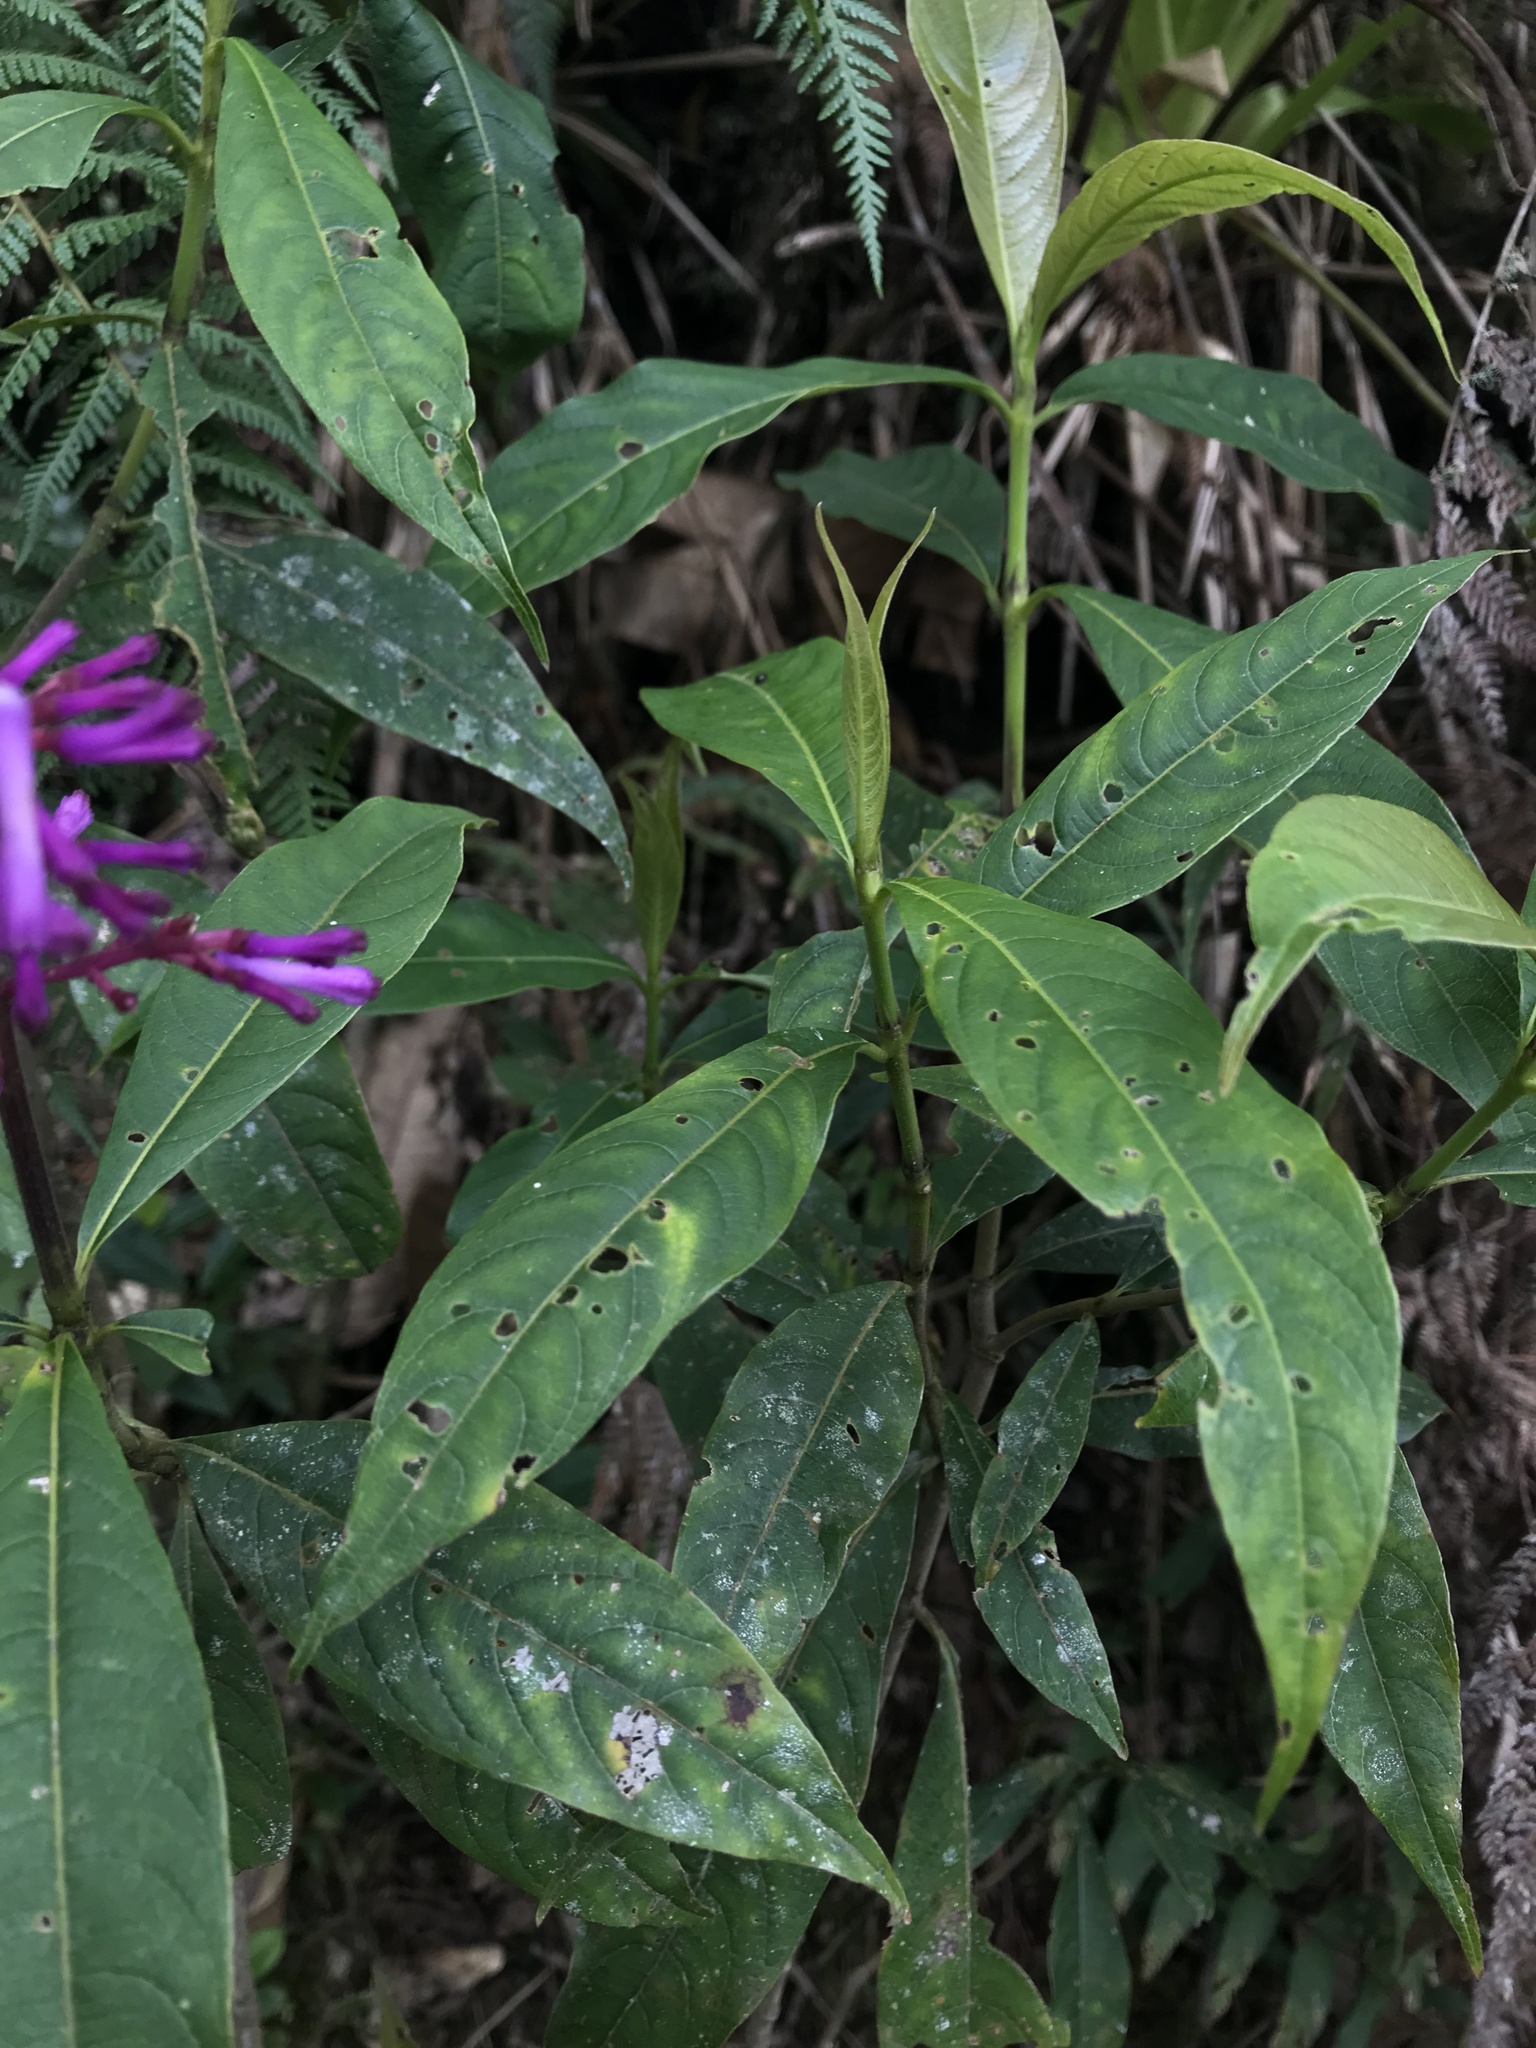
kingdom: Plantae
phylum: Tracheophyta
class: Magnoliopsida
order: Gentianales
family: Rubiaceae
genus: Palicourea
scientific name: Palicourea angustifolia
